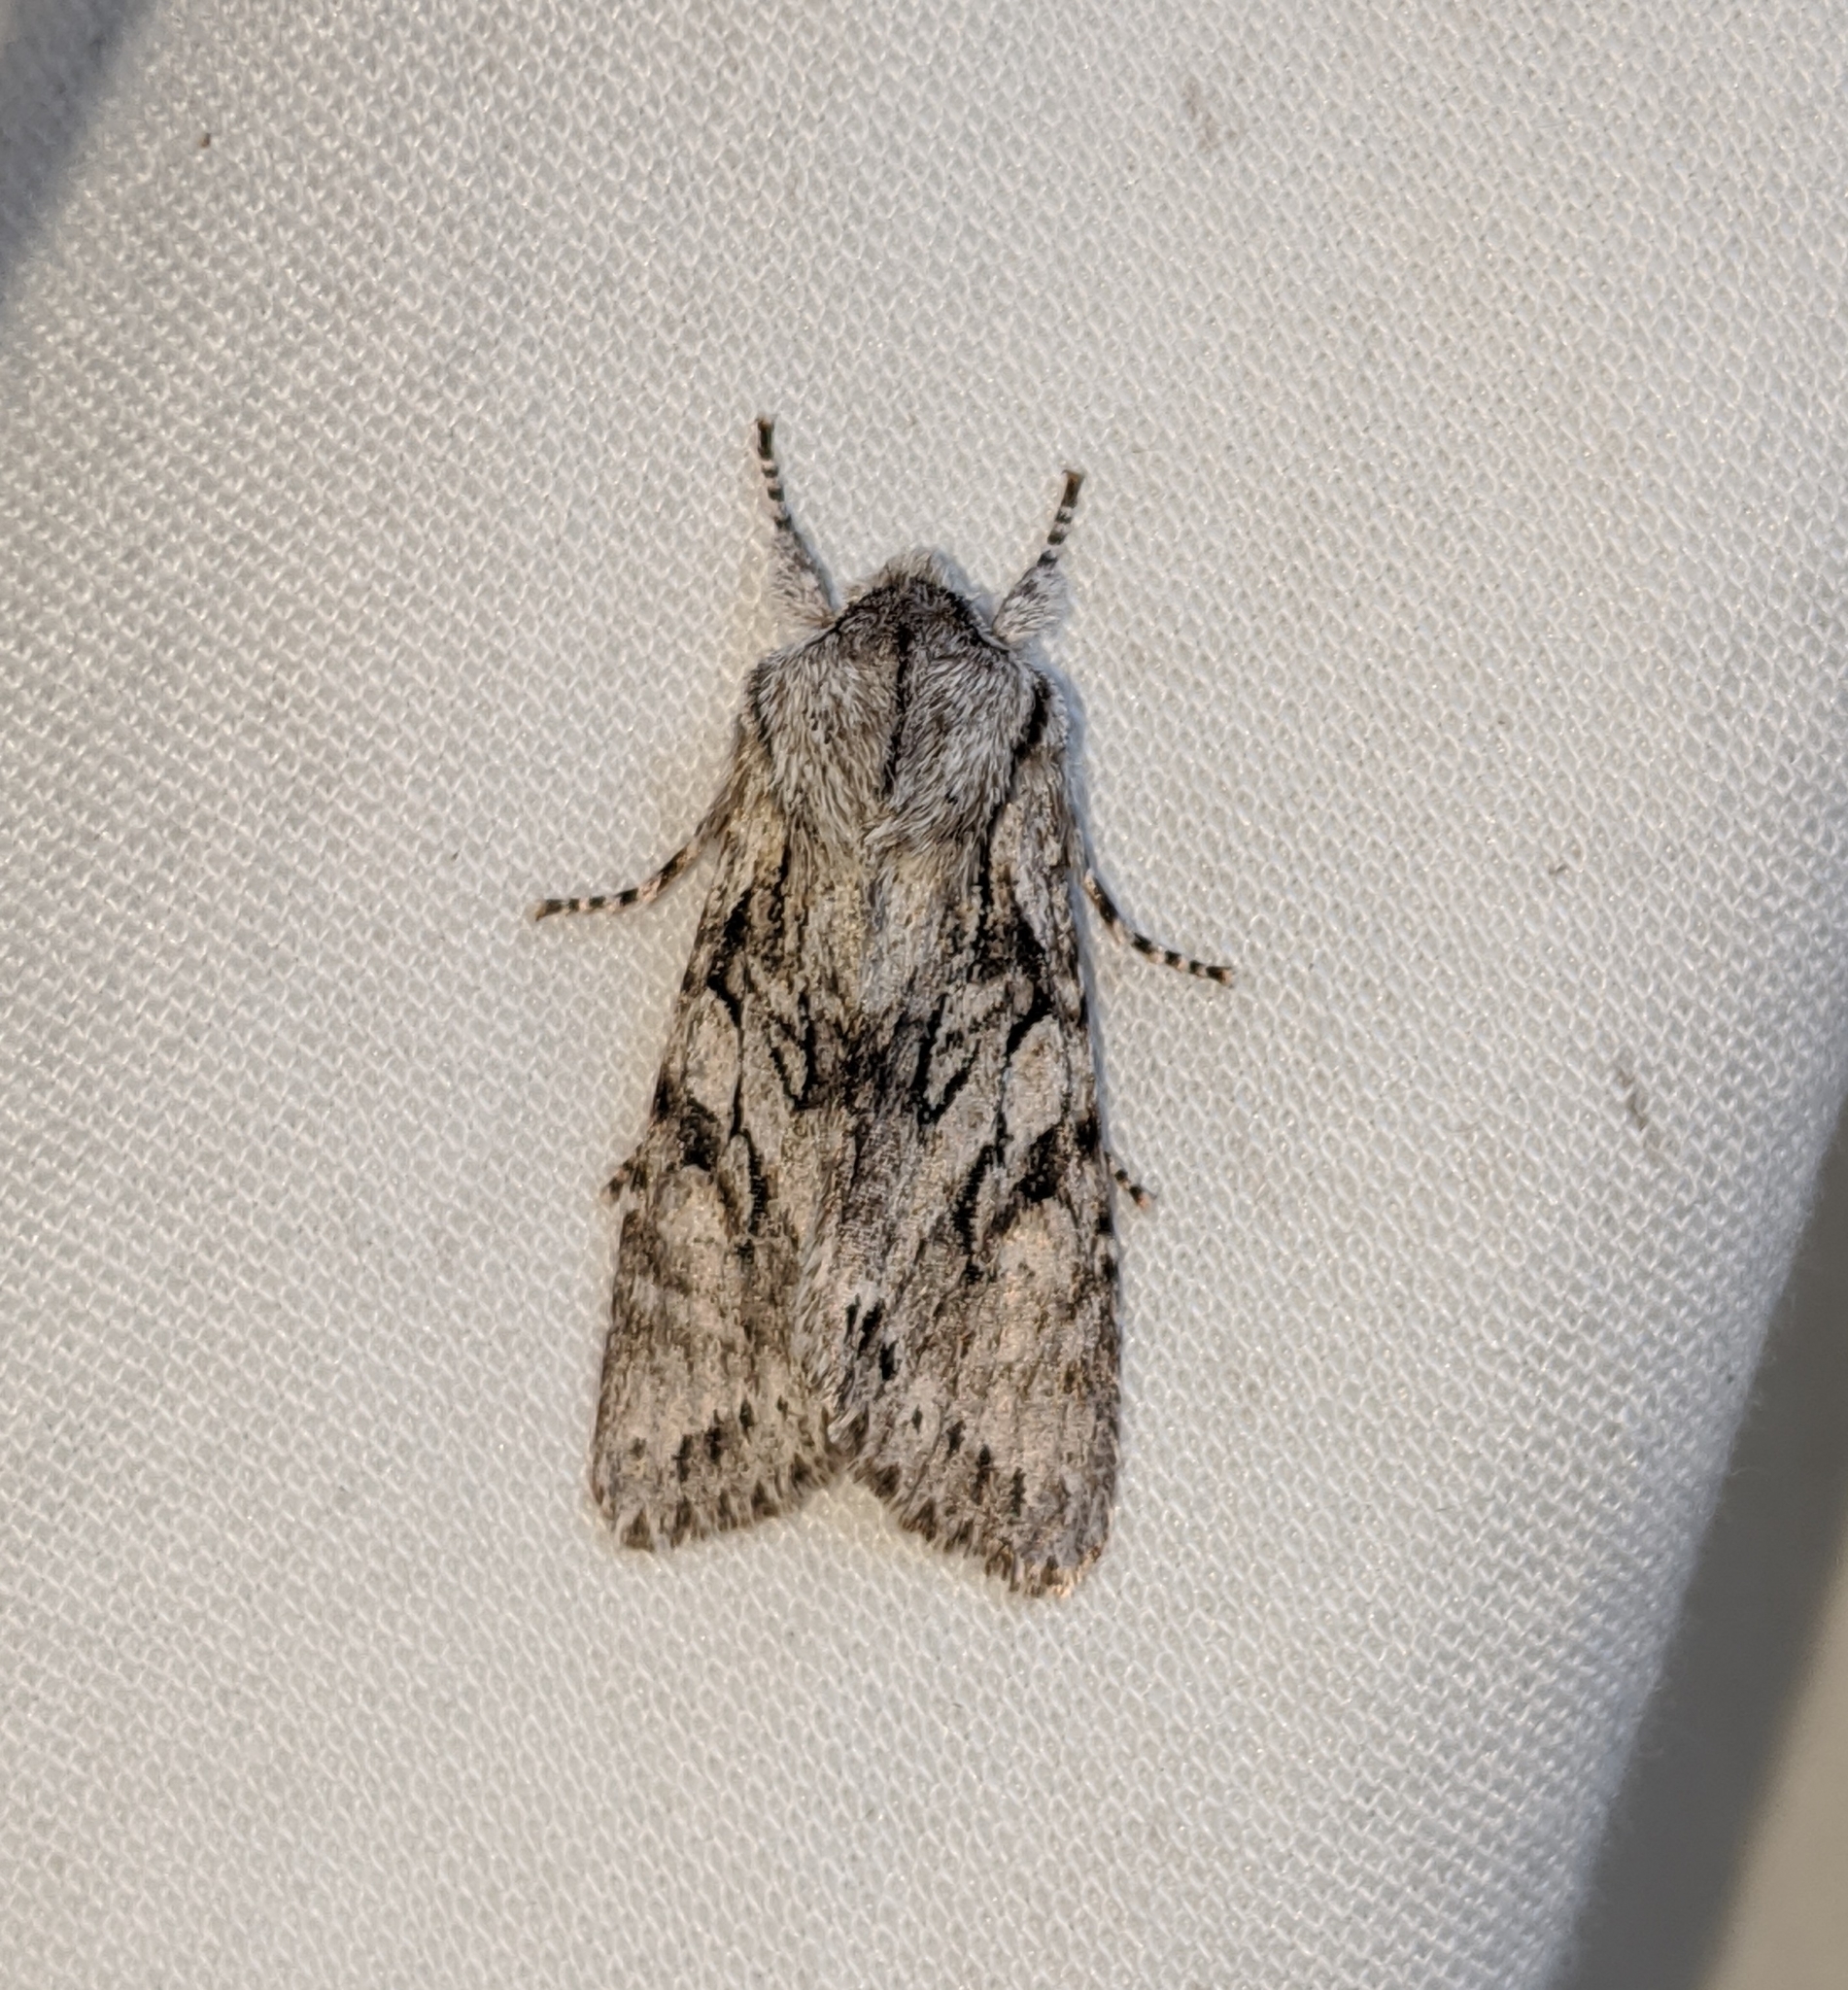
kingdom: Animalia
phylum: Arthropoda
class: Insecta
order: Lepidoptera
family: Noctuidae
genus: Egira
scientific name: Egira simplex
